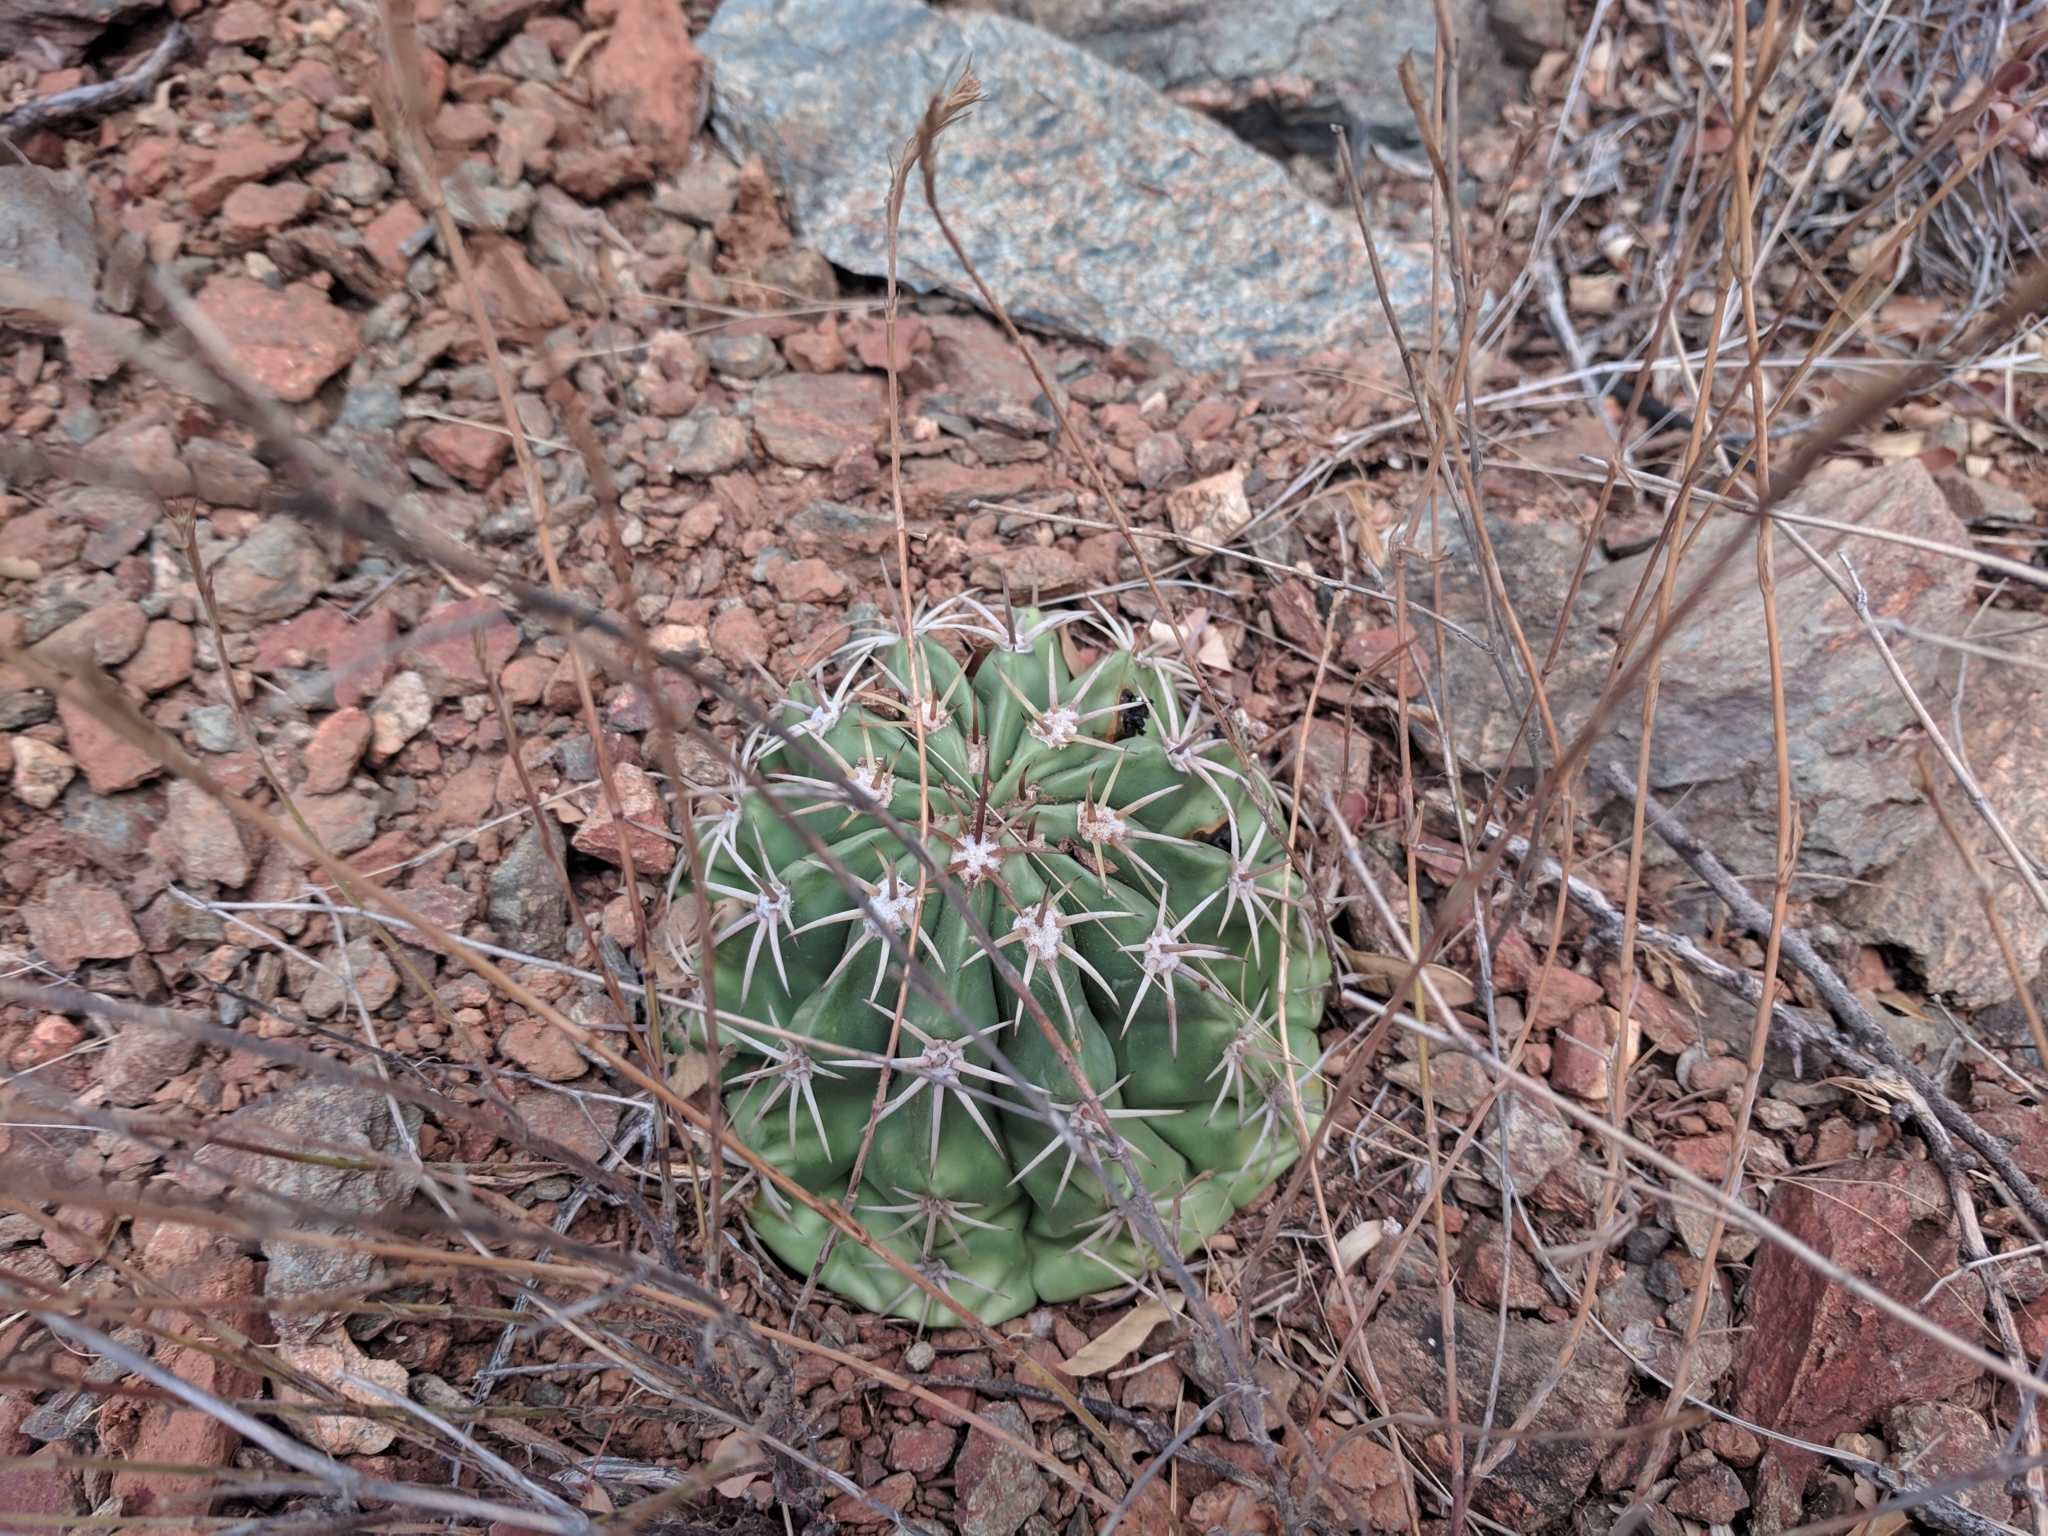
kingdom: Plantae
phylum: Tracheophyta
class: Magnoliopsida
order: Caryophyllales
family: Cactaceae
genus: Melocactus
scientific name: Melocactus curvispinus
